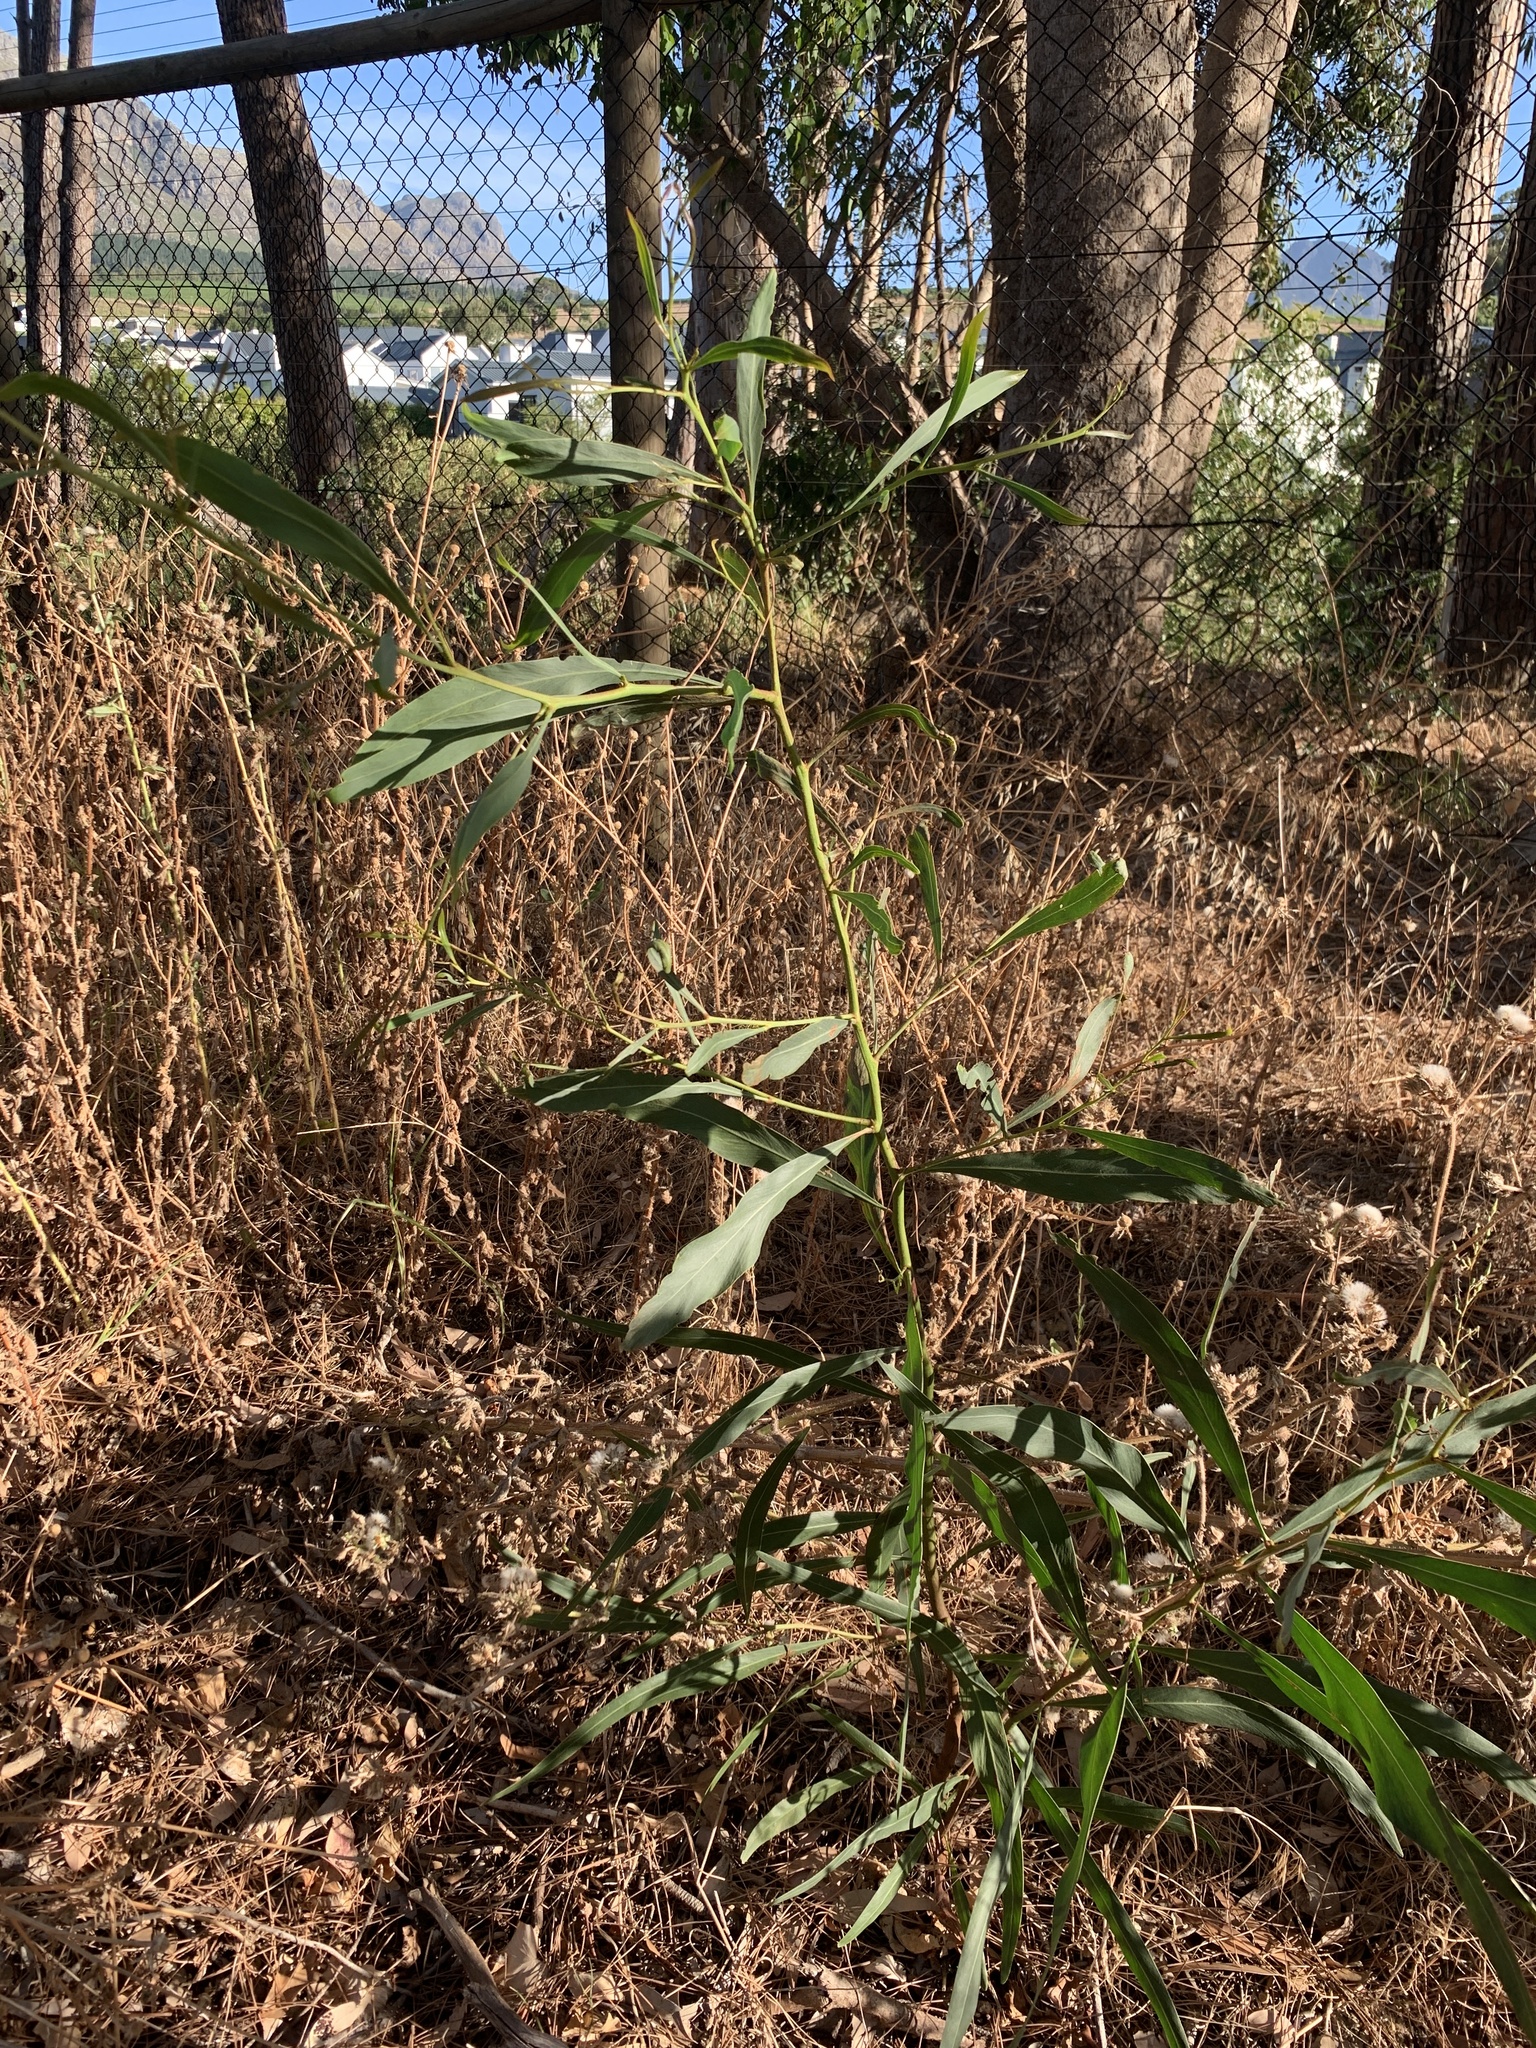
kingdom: Plantae
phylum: Tracheophyta
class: Magnoliopsida
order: Fabales
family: Fabaceae
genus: Acacia
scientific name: Acacia saligna
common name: Orange wattle
